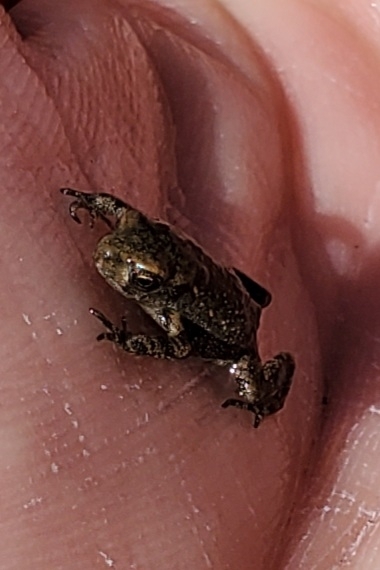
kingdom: Animalia
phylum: Chordata
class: Amphibia
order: Anura
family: Bufonidae
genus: Bufo
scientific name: Bufo spinosus
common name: Western common toad
